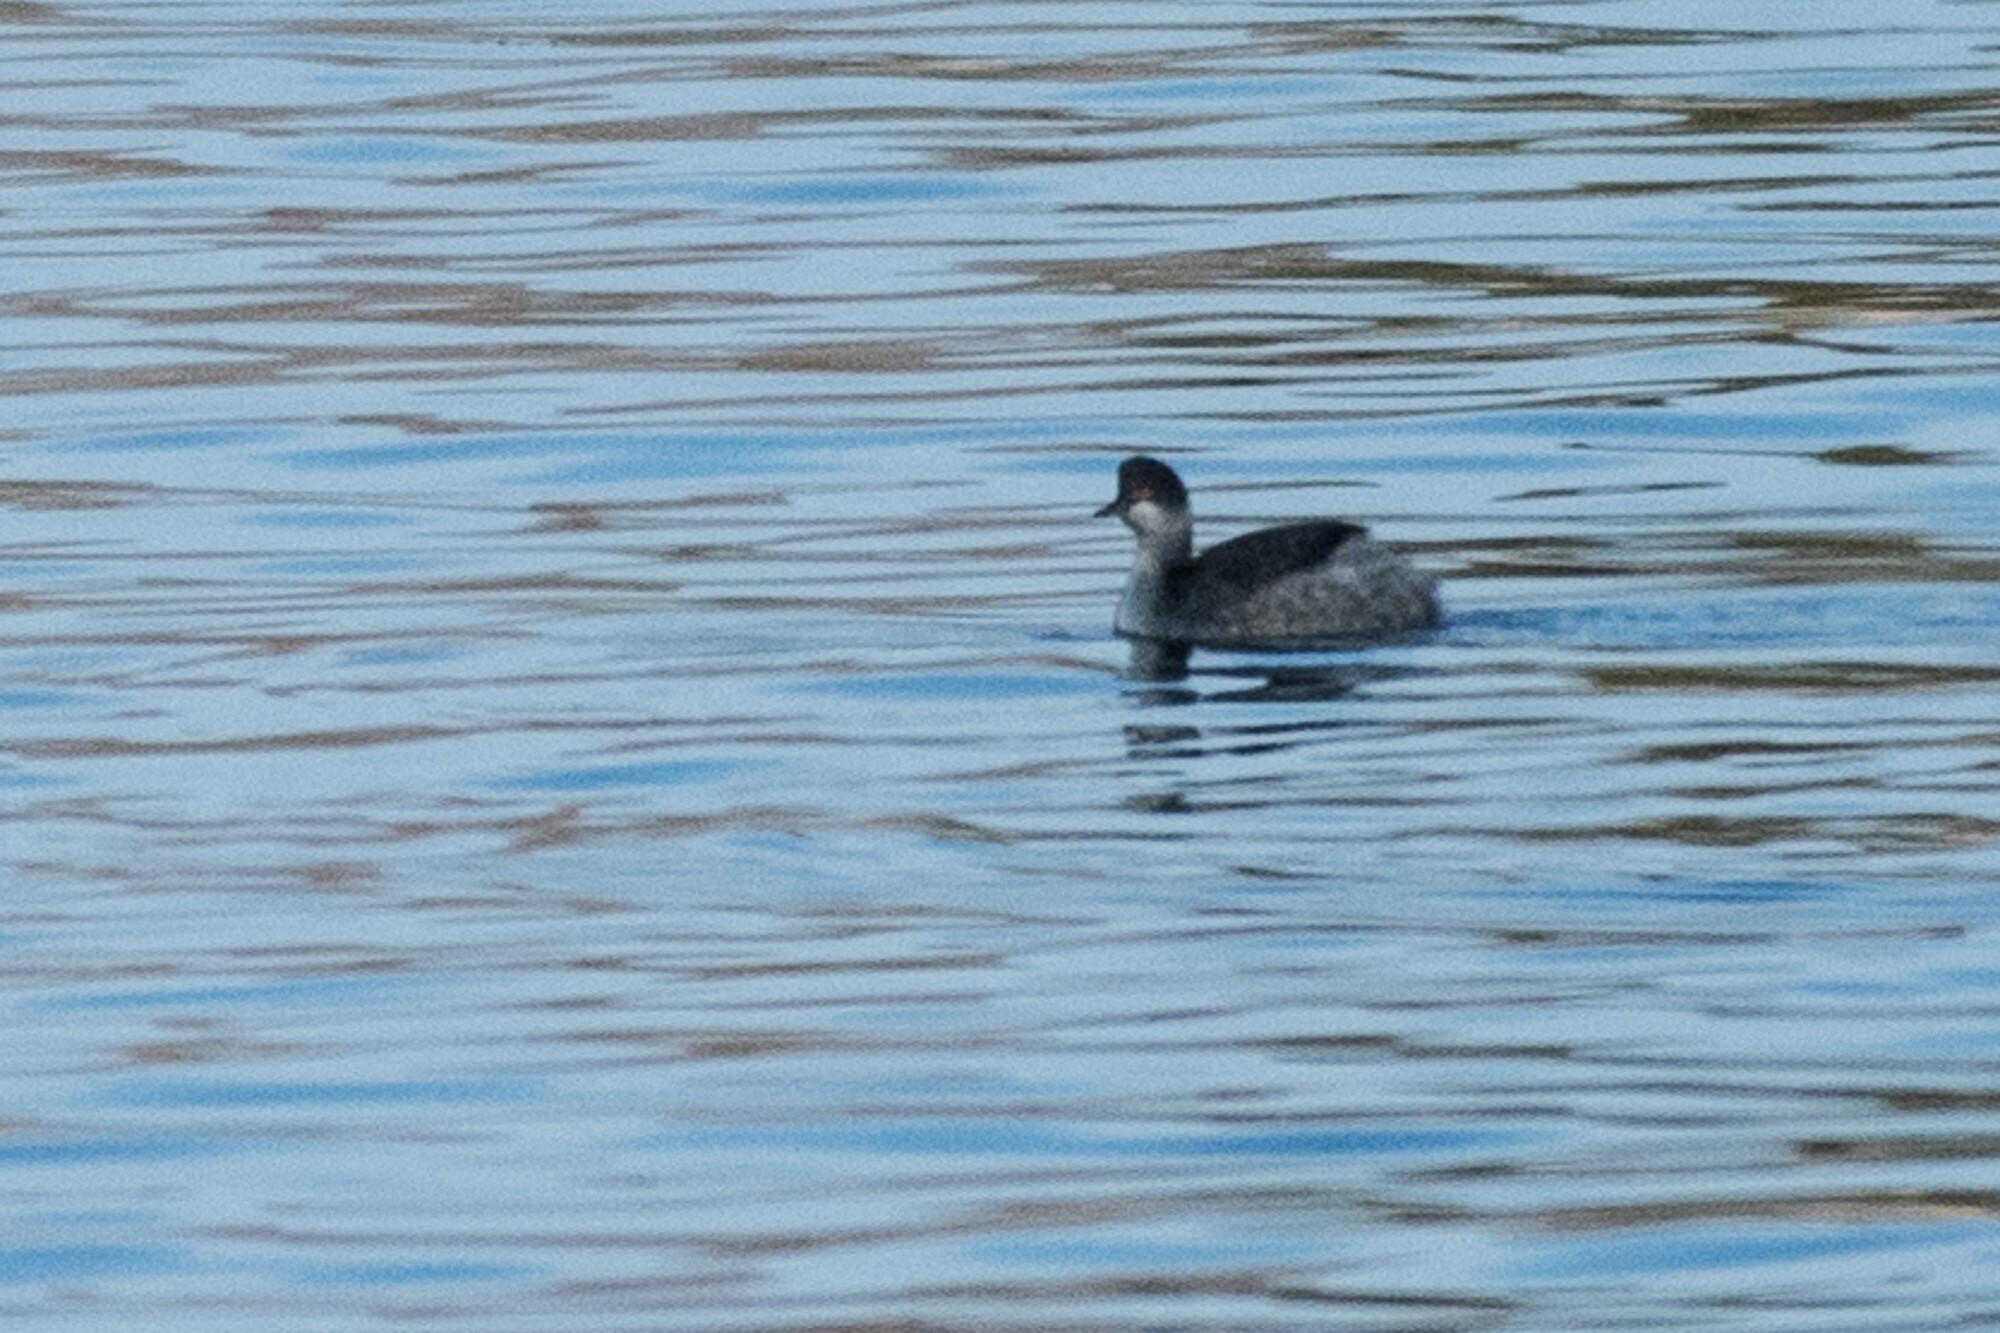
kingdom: Animalia
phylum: Chordata
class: Aves
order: Podicipediformes
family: Podicipedidae
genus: Podiceps
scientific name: Podiceps nigricollis
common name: Black-necked grebe
